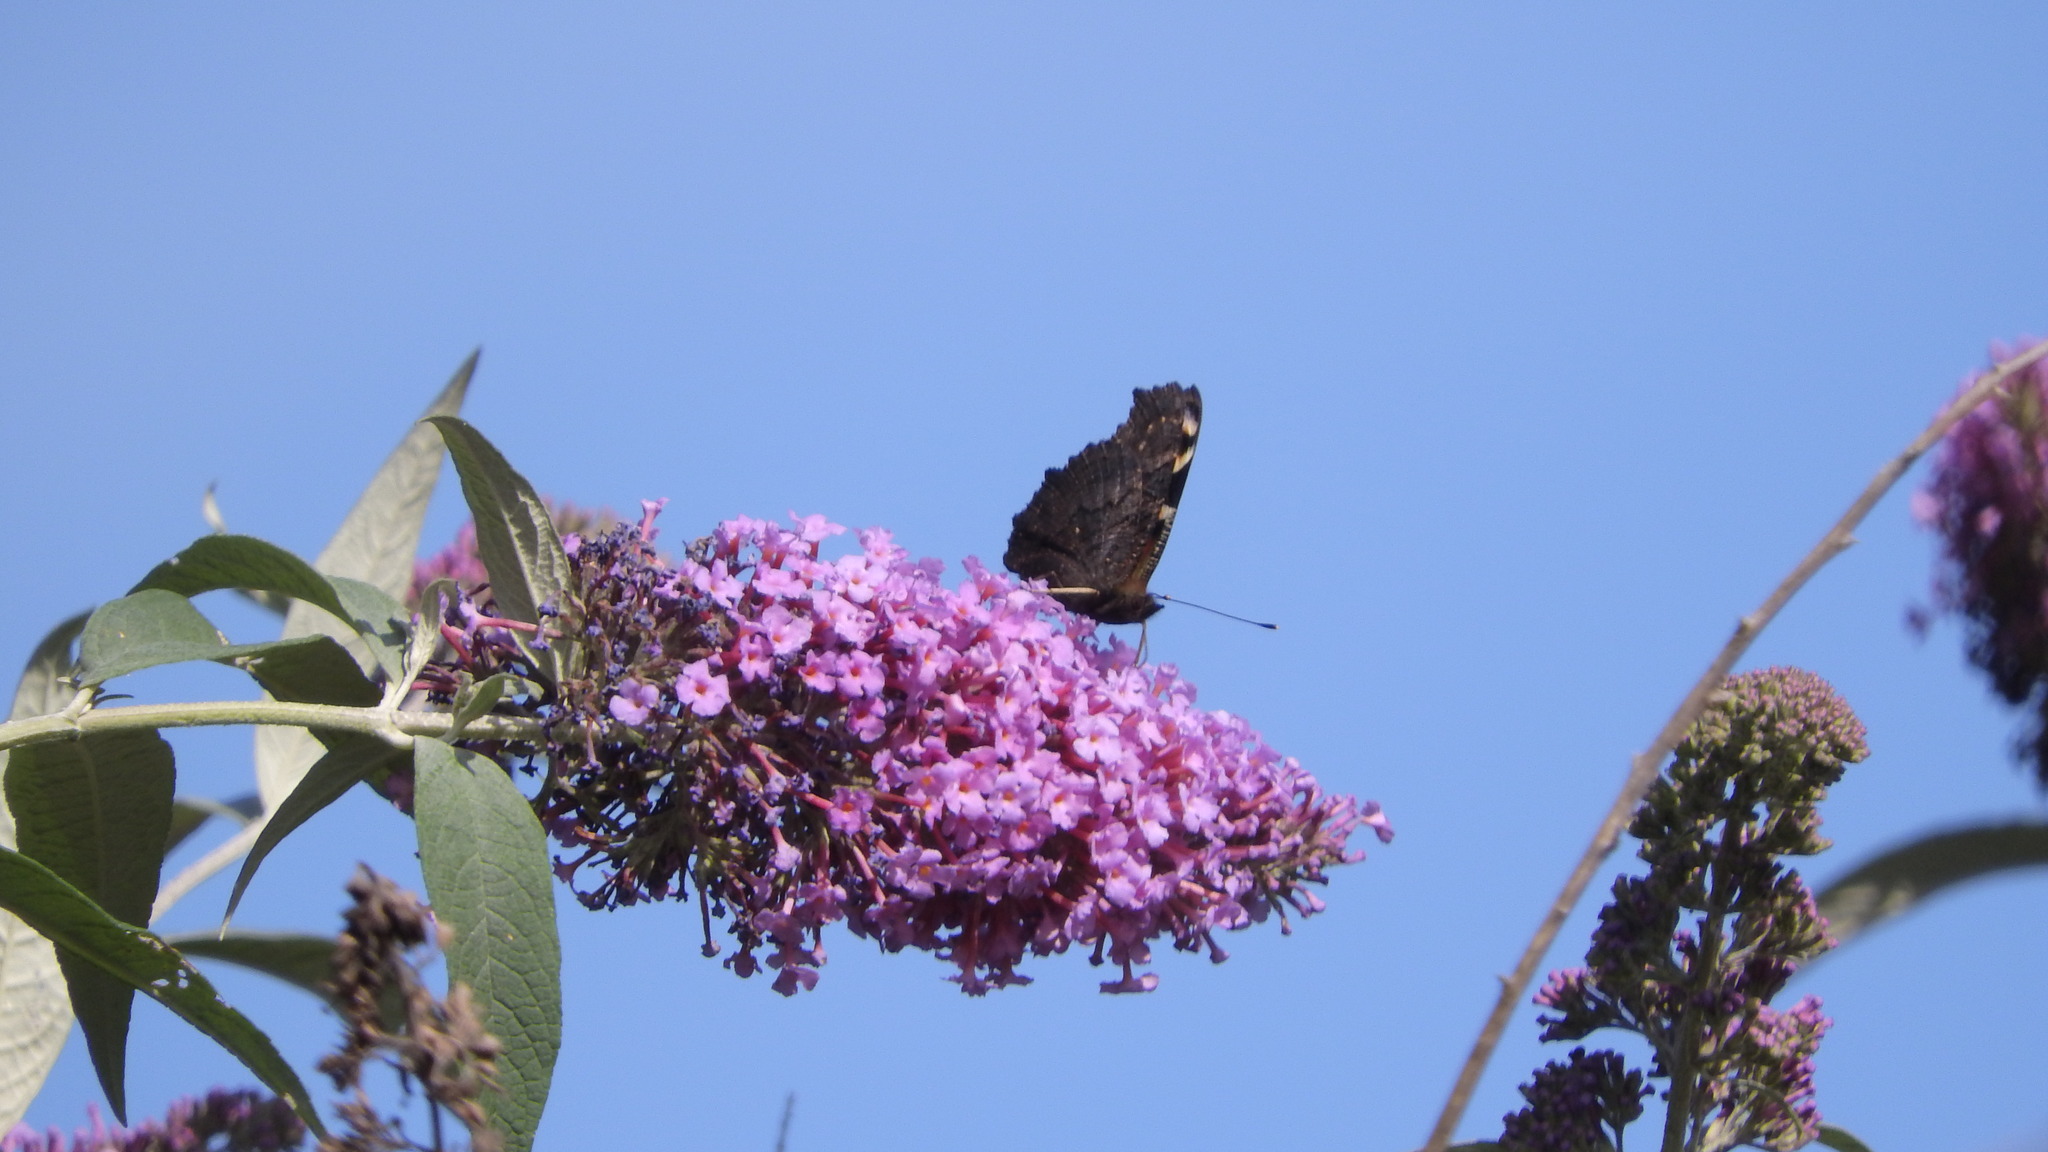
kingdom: Animalia
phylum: Arthropoda
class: Insecta
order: Lepidoptera
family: Nymphalidae
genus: Aglais
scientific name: Aglais io
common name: Peacock
